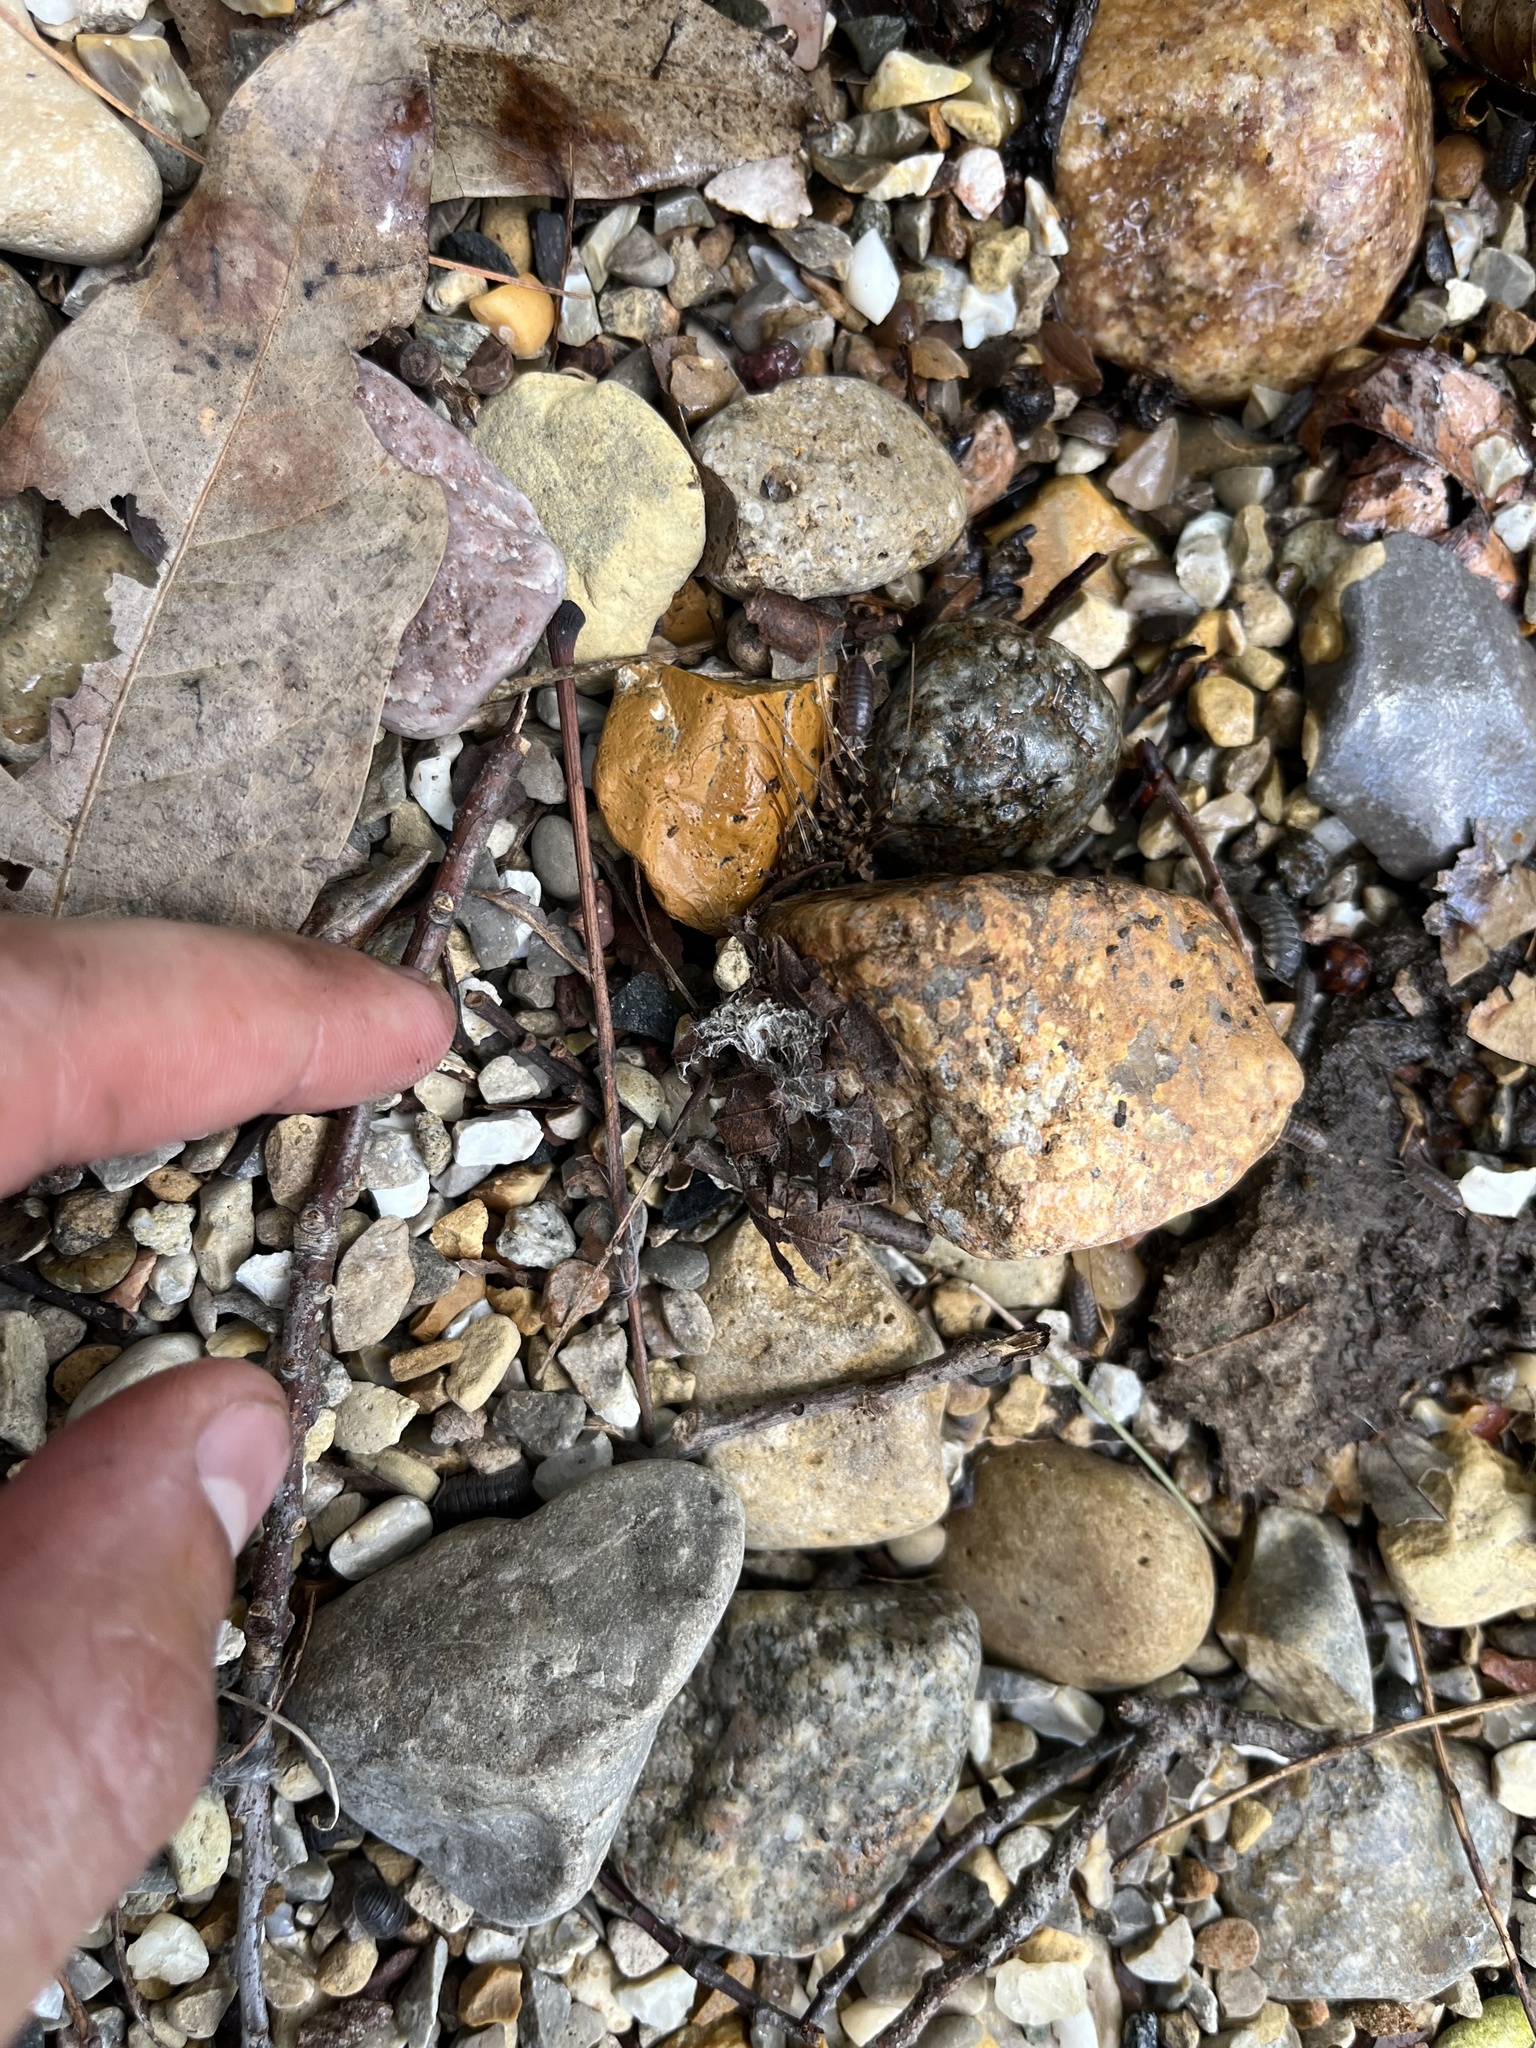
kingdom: Animalia
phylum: Arthropoda
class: Chilopoda
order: Scutigeromorpha
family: Scutigeridae
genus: Thereuonema
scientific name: Thereuonema tuberculata
